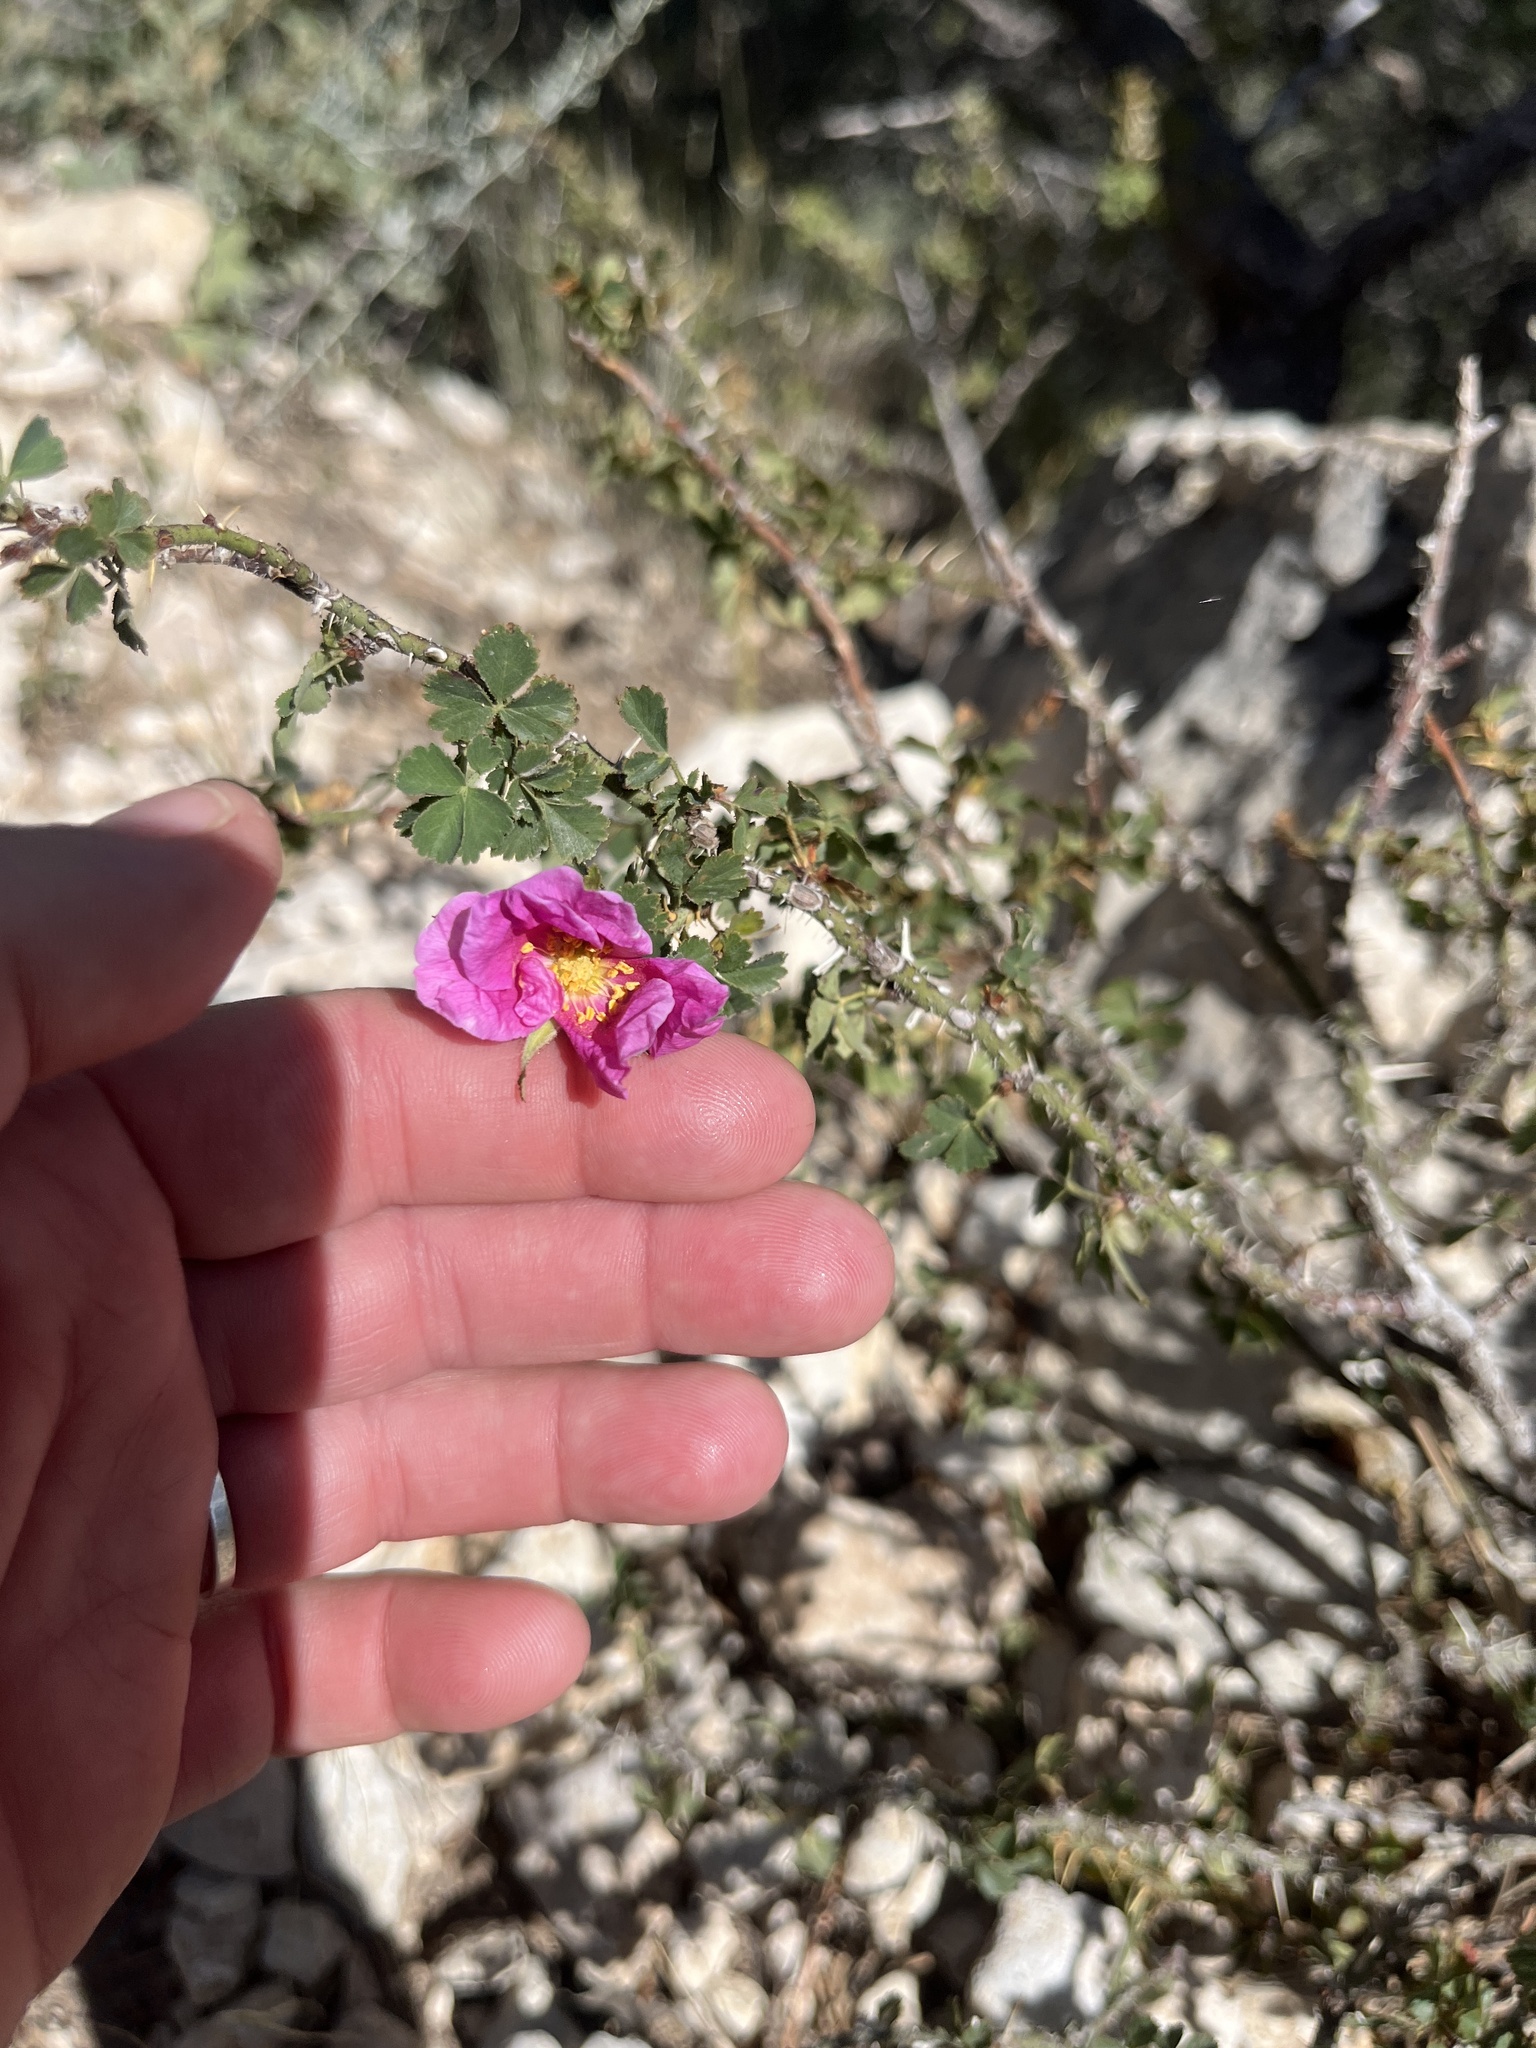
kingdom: Plantae
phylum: Tracheophyta
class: Magnoliopsida
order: Rosales
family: Rosaceae
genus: Rosa
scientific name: Rosa stellata
